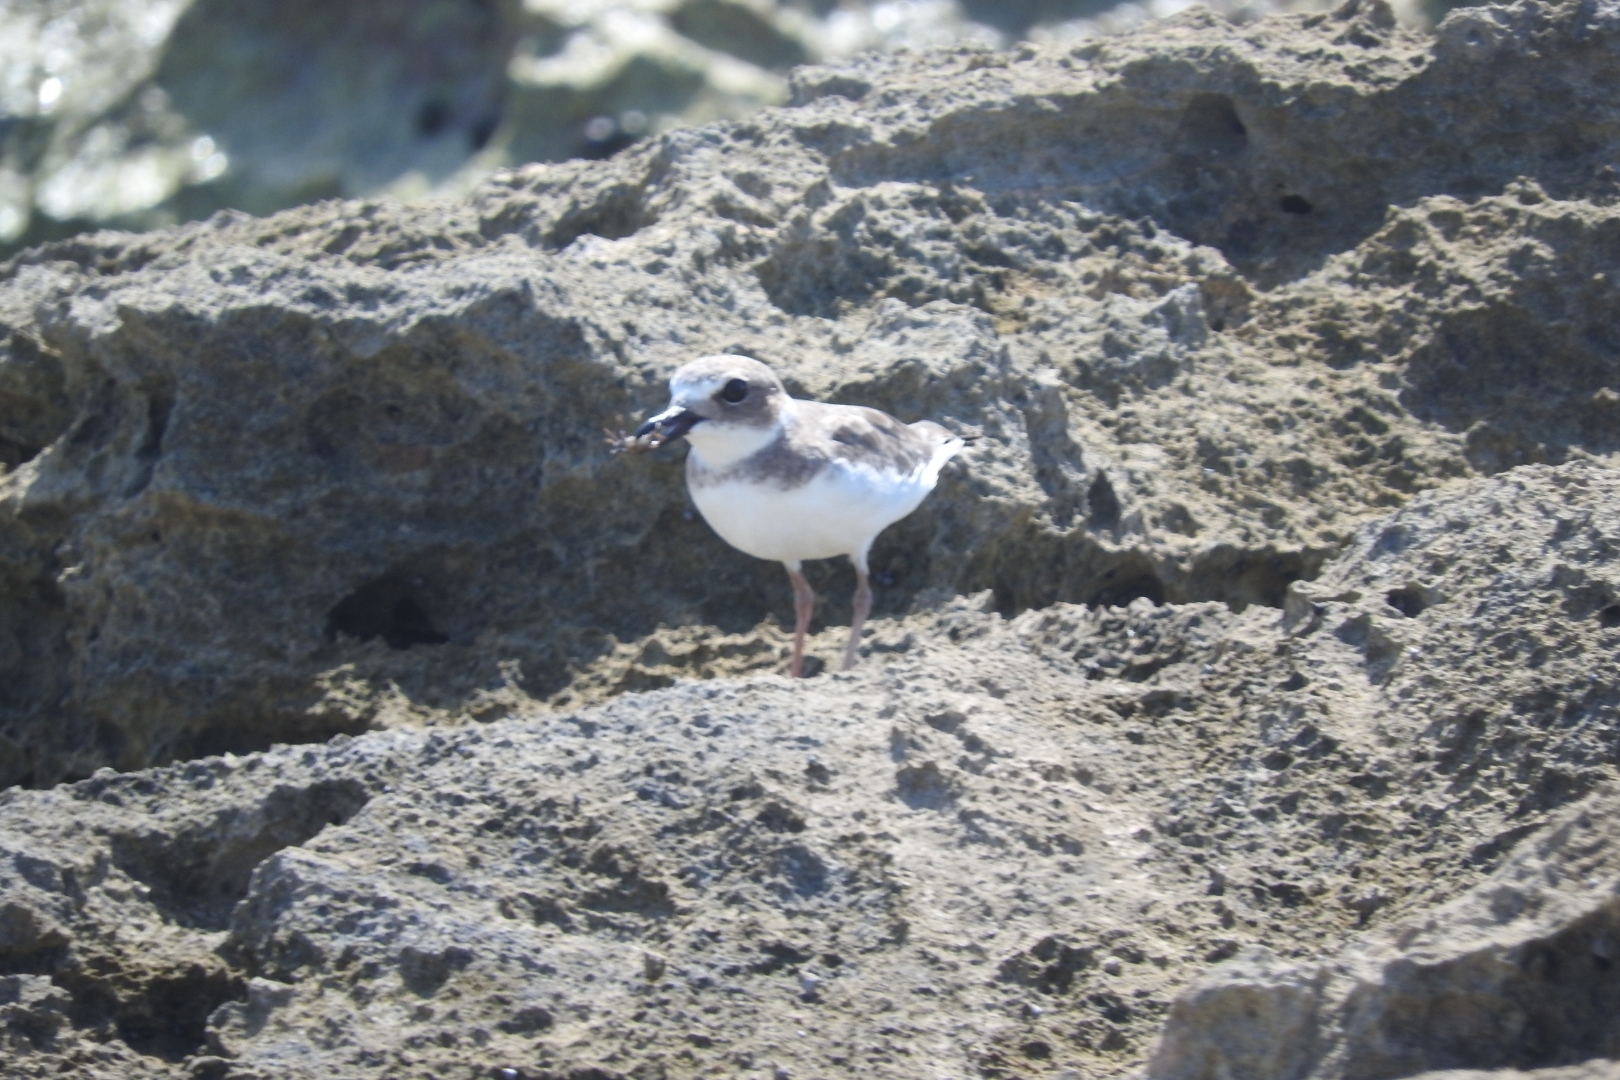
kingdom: Animalia
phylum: Chordata
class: Aves
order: Charadriiformes
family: Charadriidae
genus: Anarhynchus
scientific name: Anarhynchus
